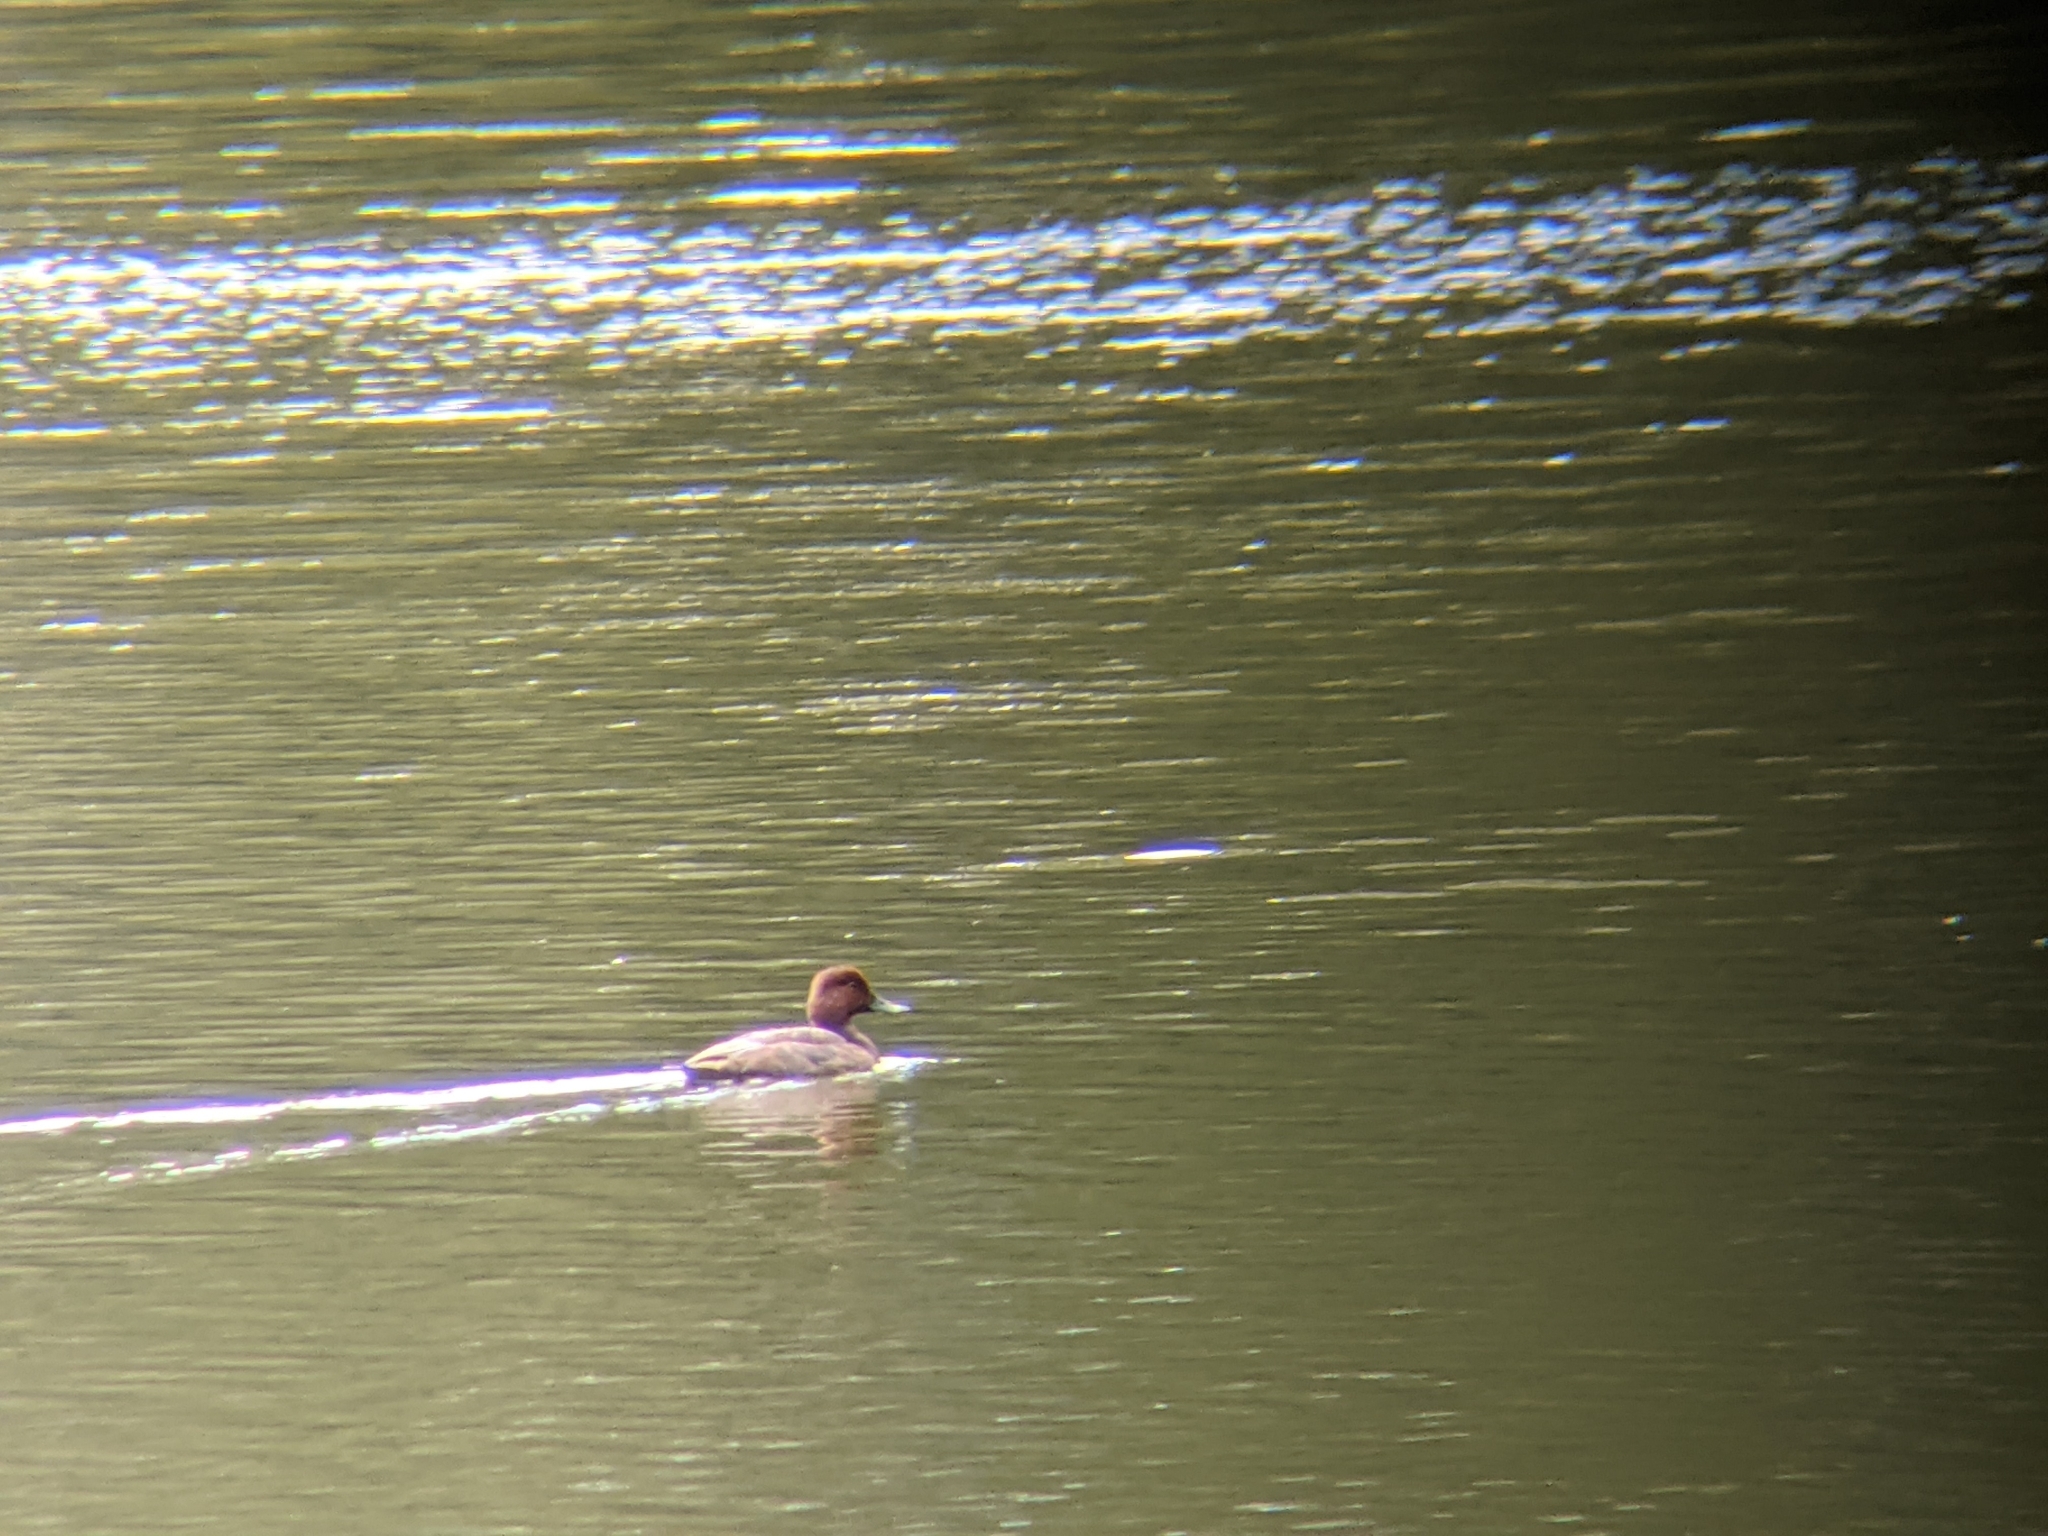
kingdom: Animalia
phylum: Chordata
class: Aves
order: Anseriformes
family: Anatidae
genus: Aythya
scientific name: Aythya americana
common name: Redhead
